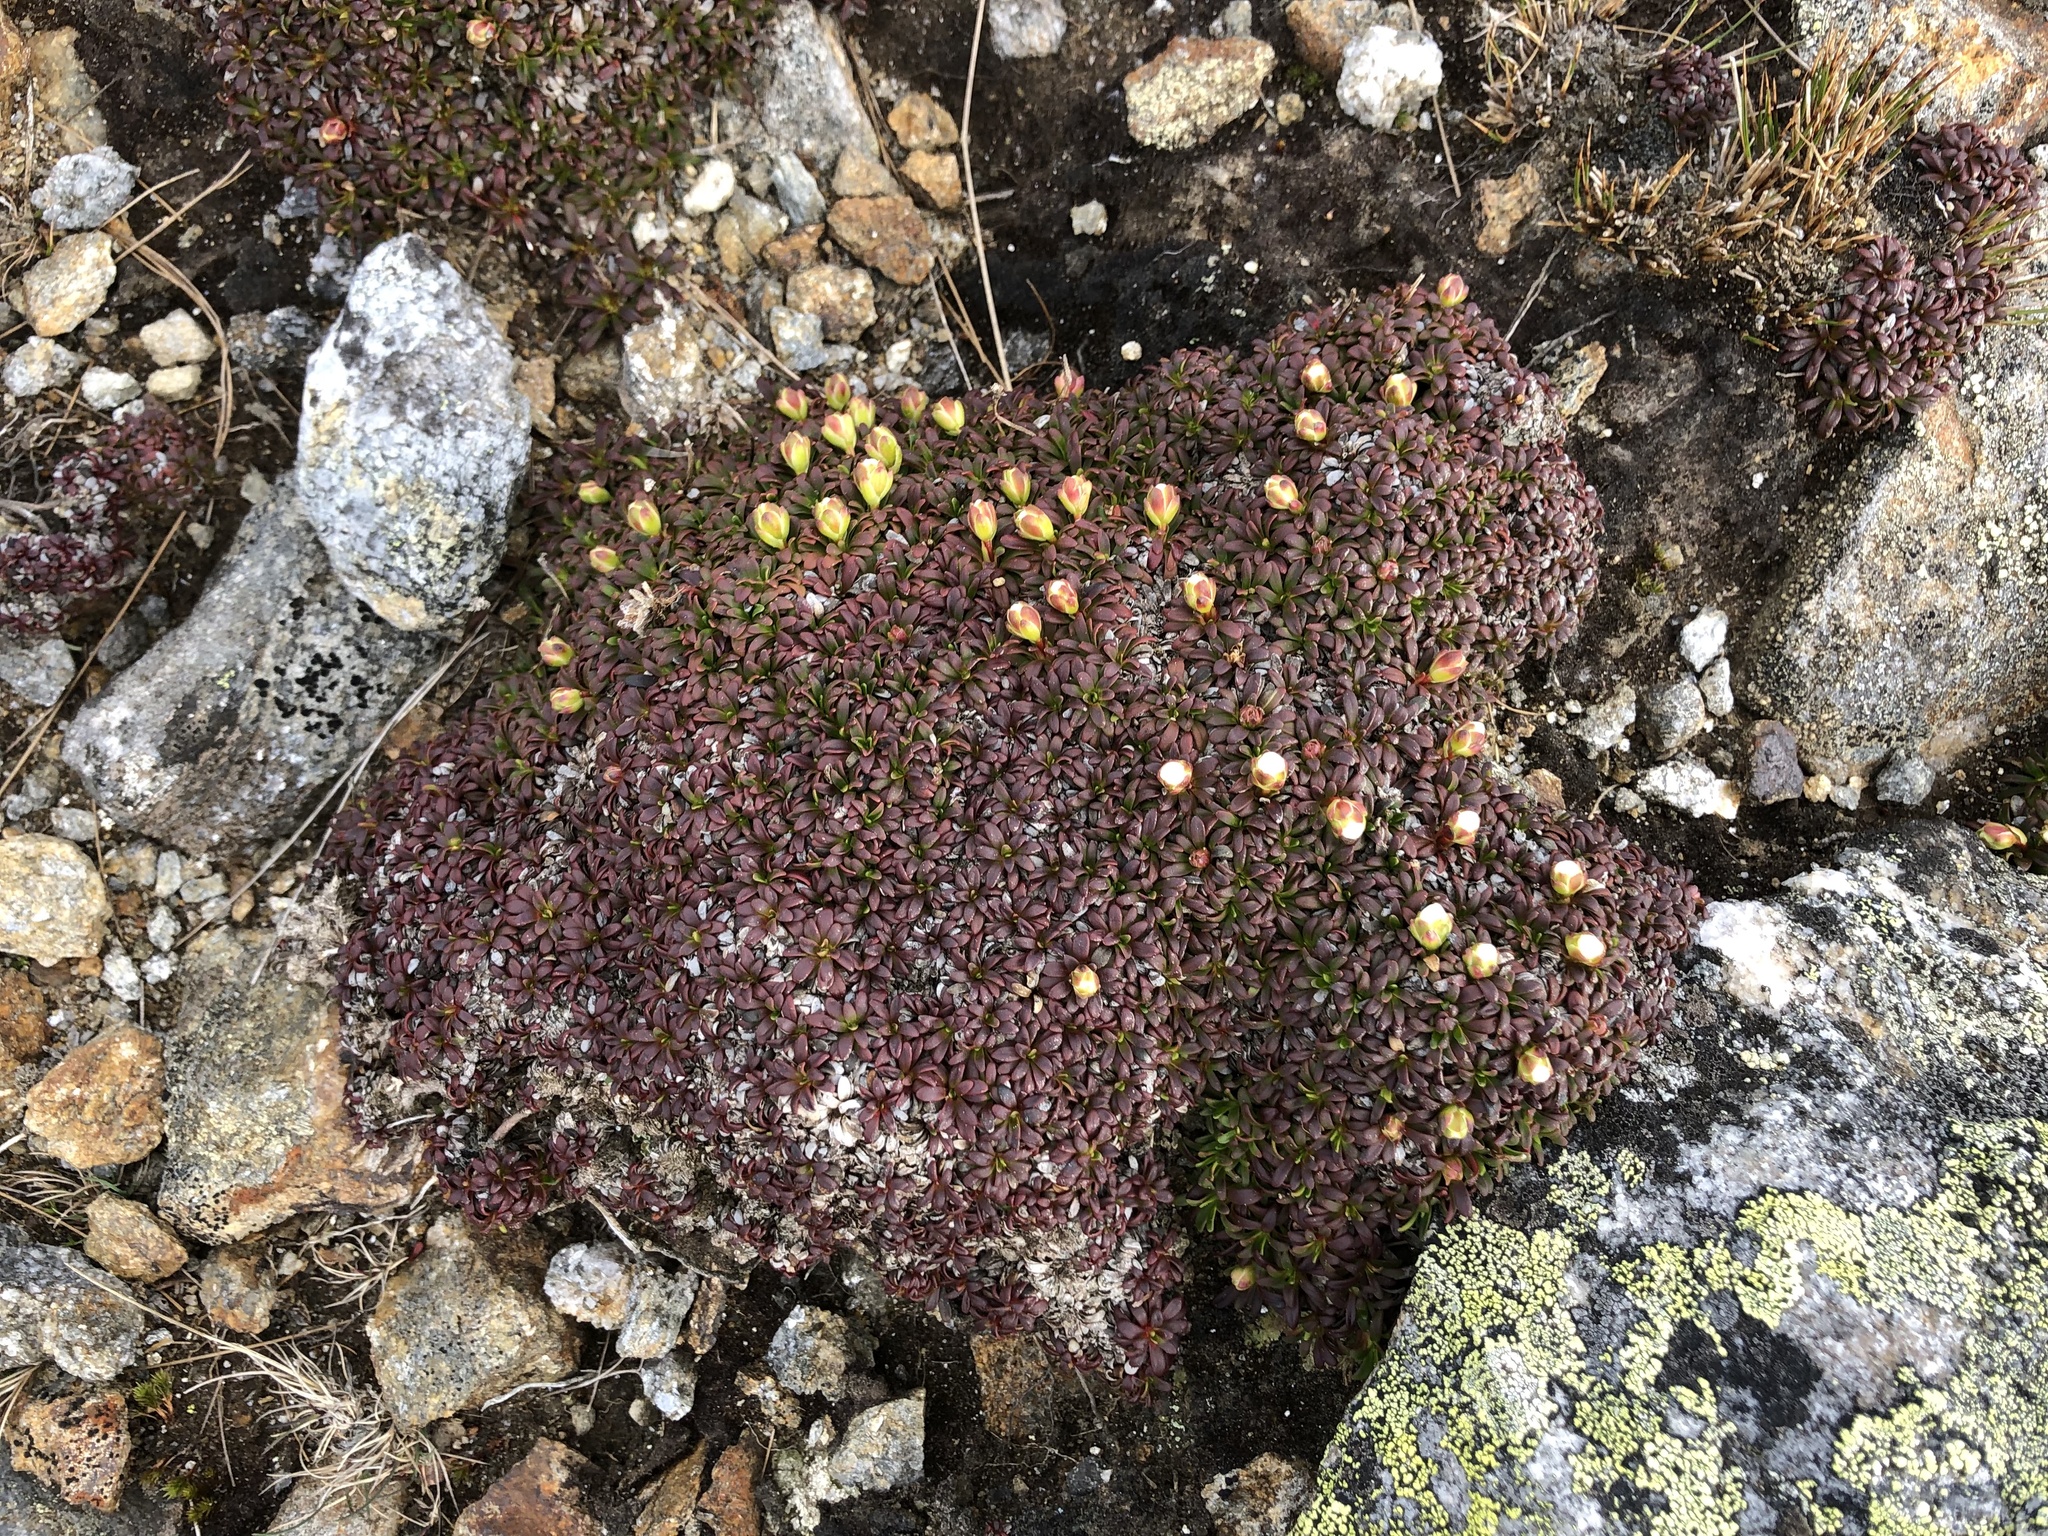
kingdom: Plantae
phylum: Tracheophyta
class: Magnoliopsida
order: Ericales
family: Diapensiaceae
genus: Diapensia
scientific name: Diapensia lapponica
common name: Diapensia
